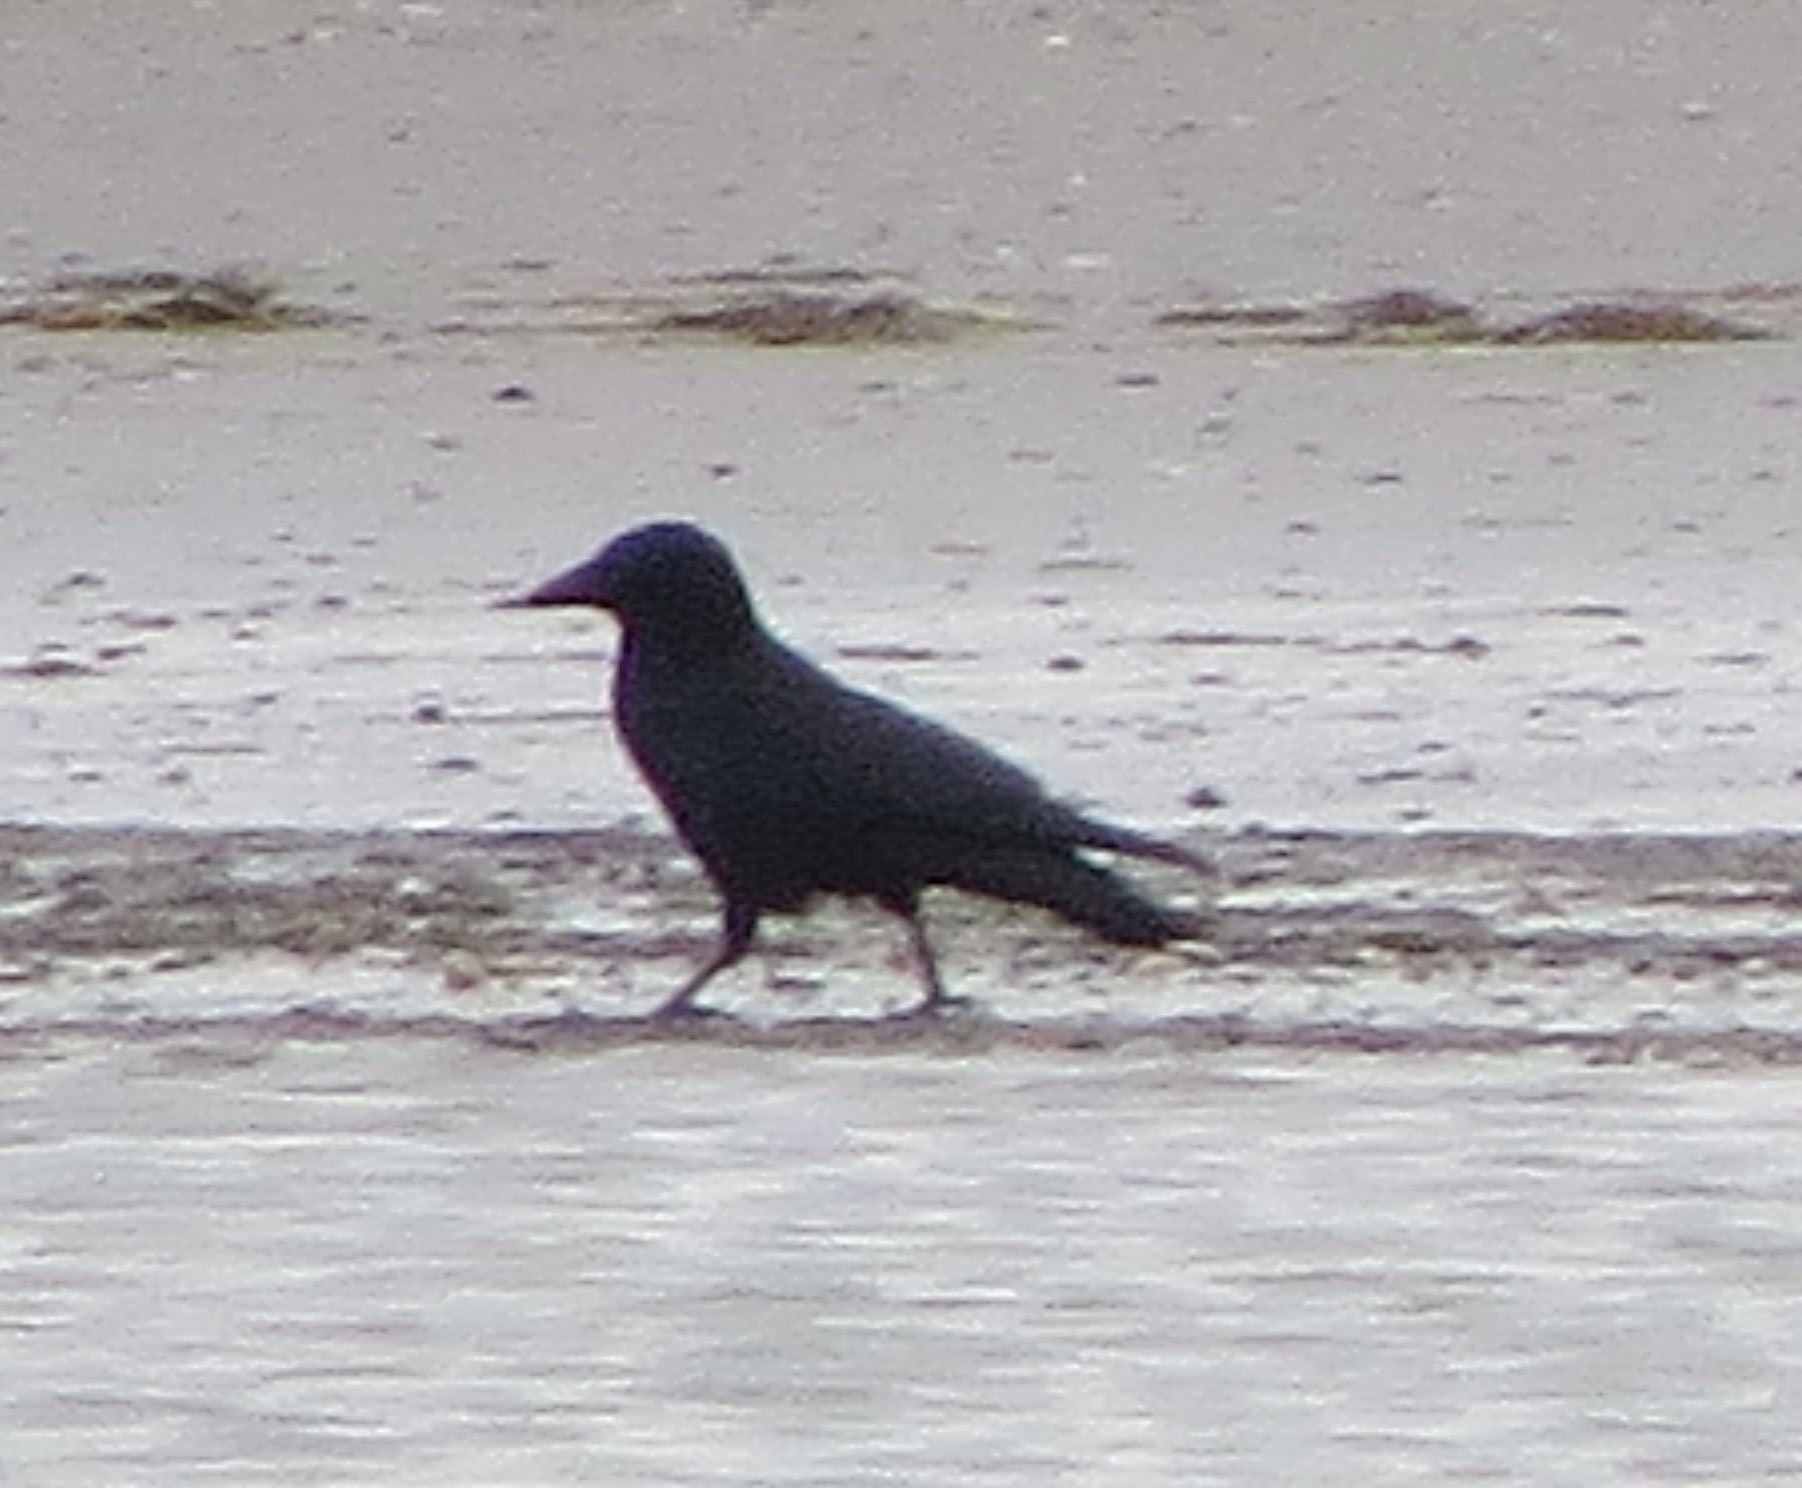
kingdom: Animalia
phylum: Chordata
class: Aves
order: Passeriformes
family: Corvidae
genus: Corvus
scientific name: Corvus corone
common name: Carrion crow
